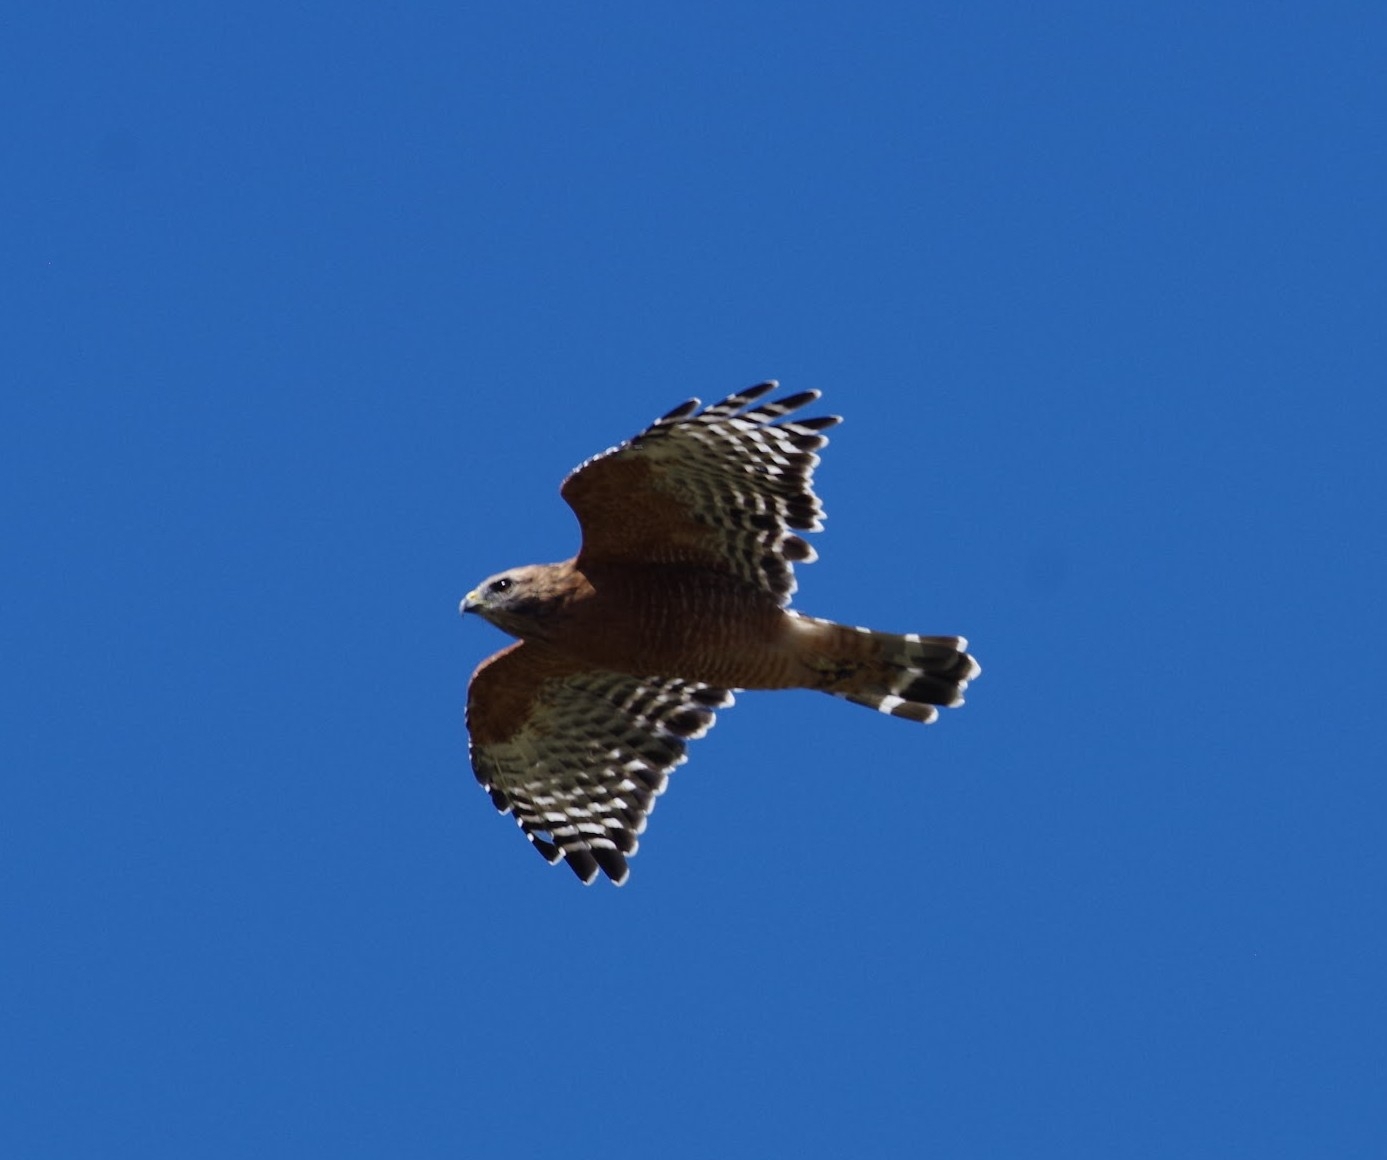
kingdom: Animalia
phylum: Chordata
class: Aves
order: Accipitriformes
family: Accipitridae
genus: Buteo
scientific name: Buteo lineatus
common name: Red-shouldered hawk
